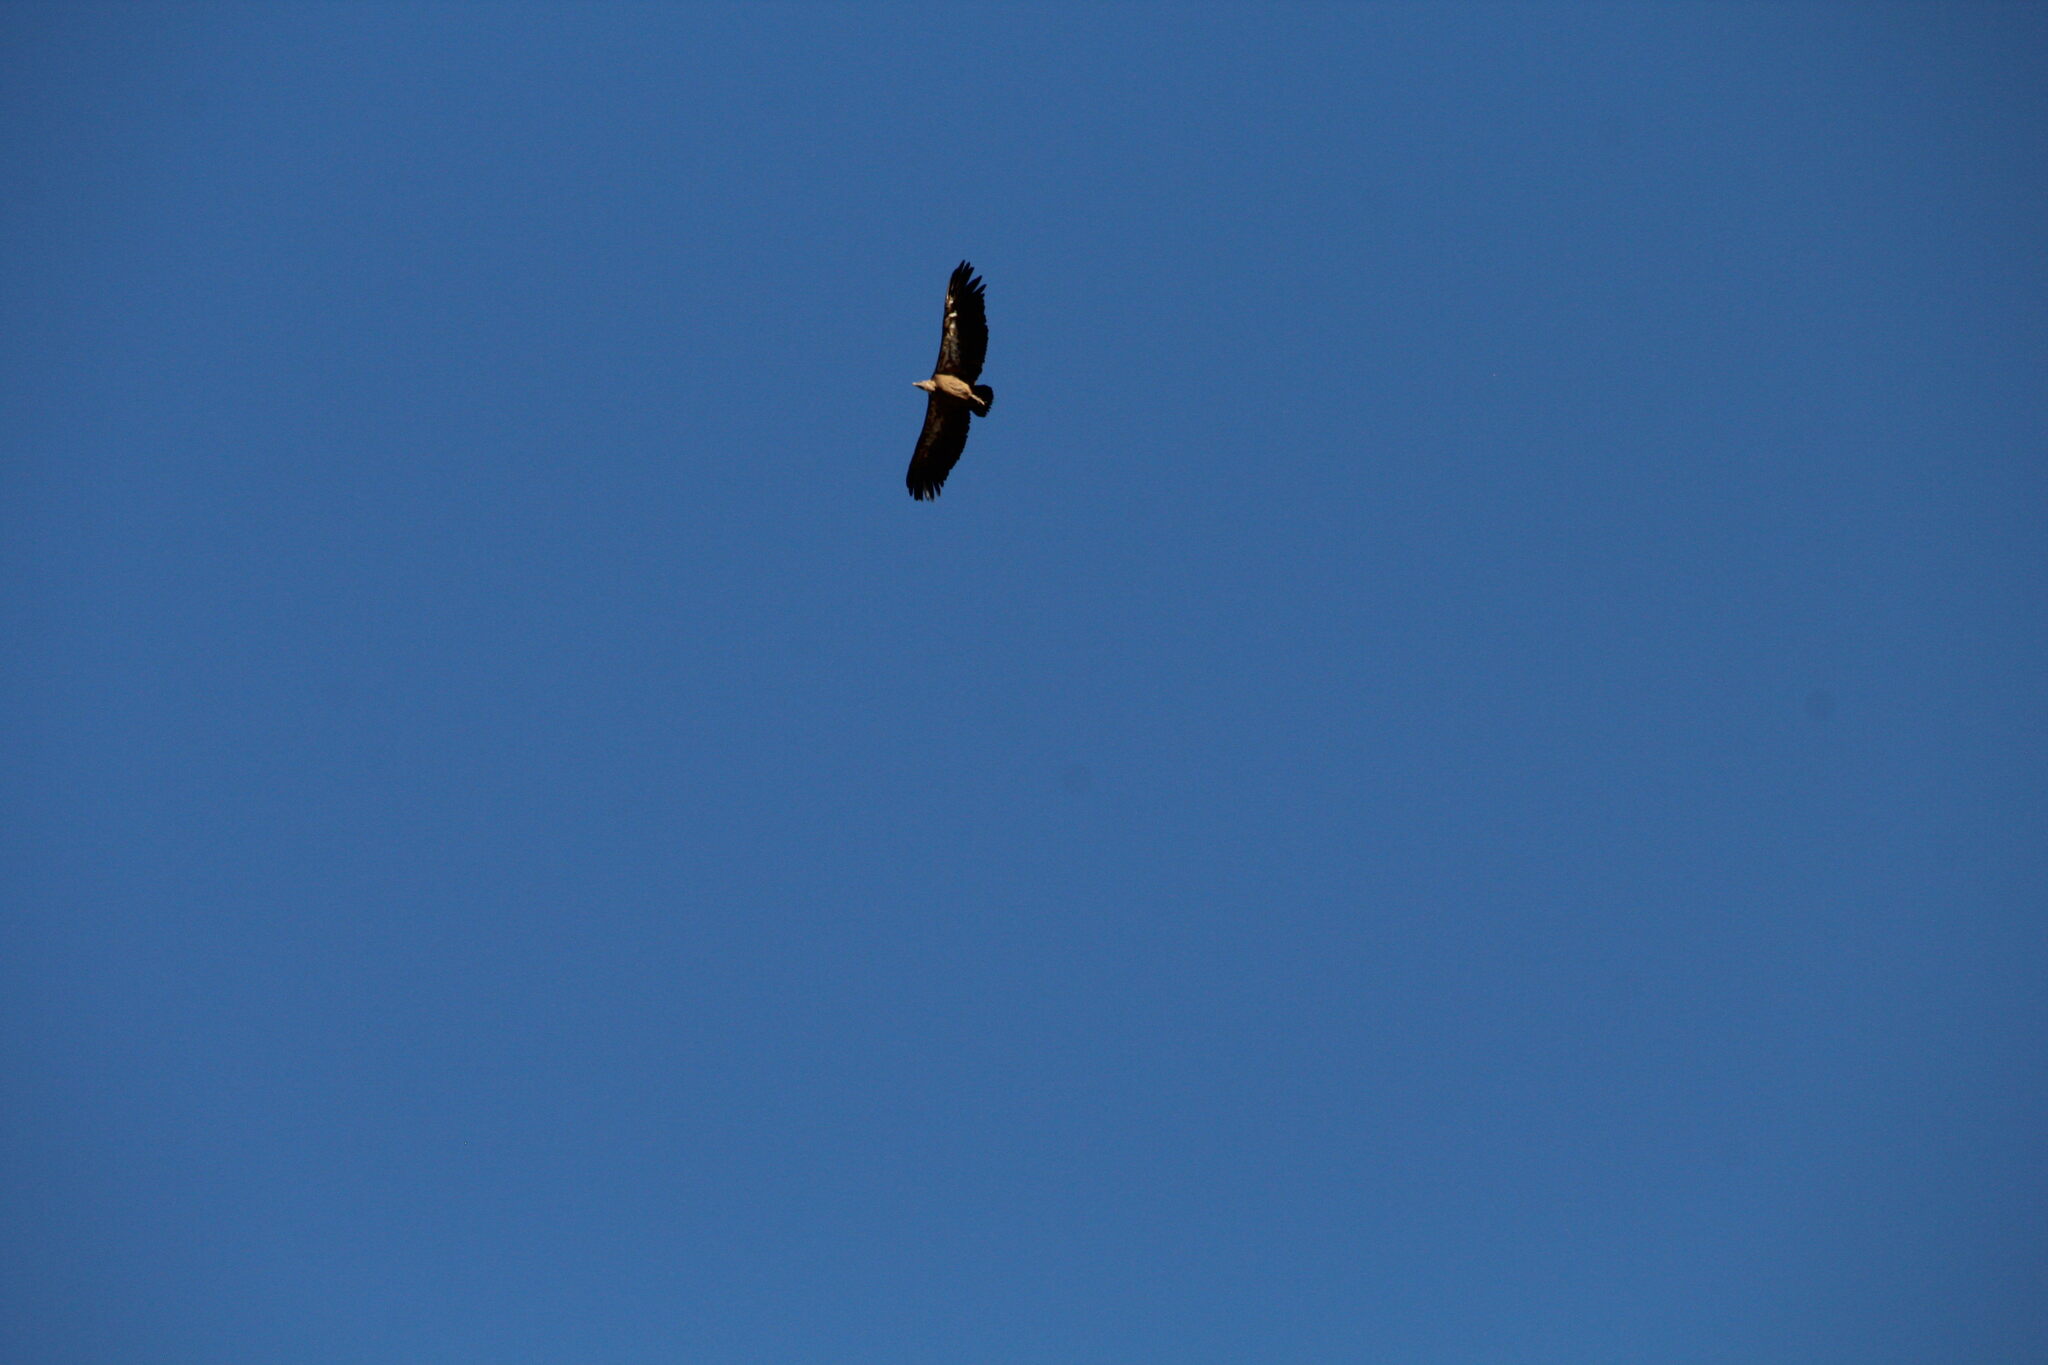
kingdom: Animalia
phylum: Chordata
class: Aves
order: Accipitriformes
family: Accipitridae
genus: Gyps
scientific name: Gyps fulvus
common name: Griffon vulture
